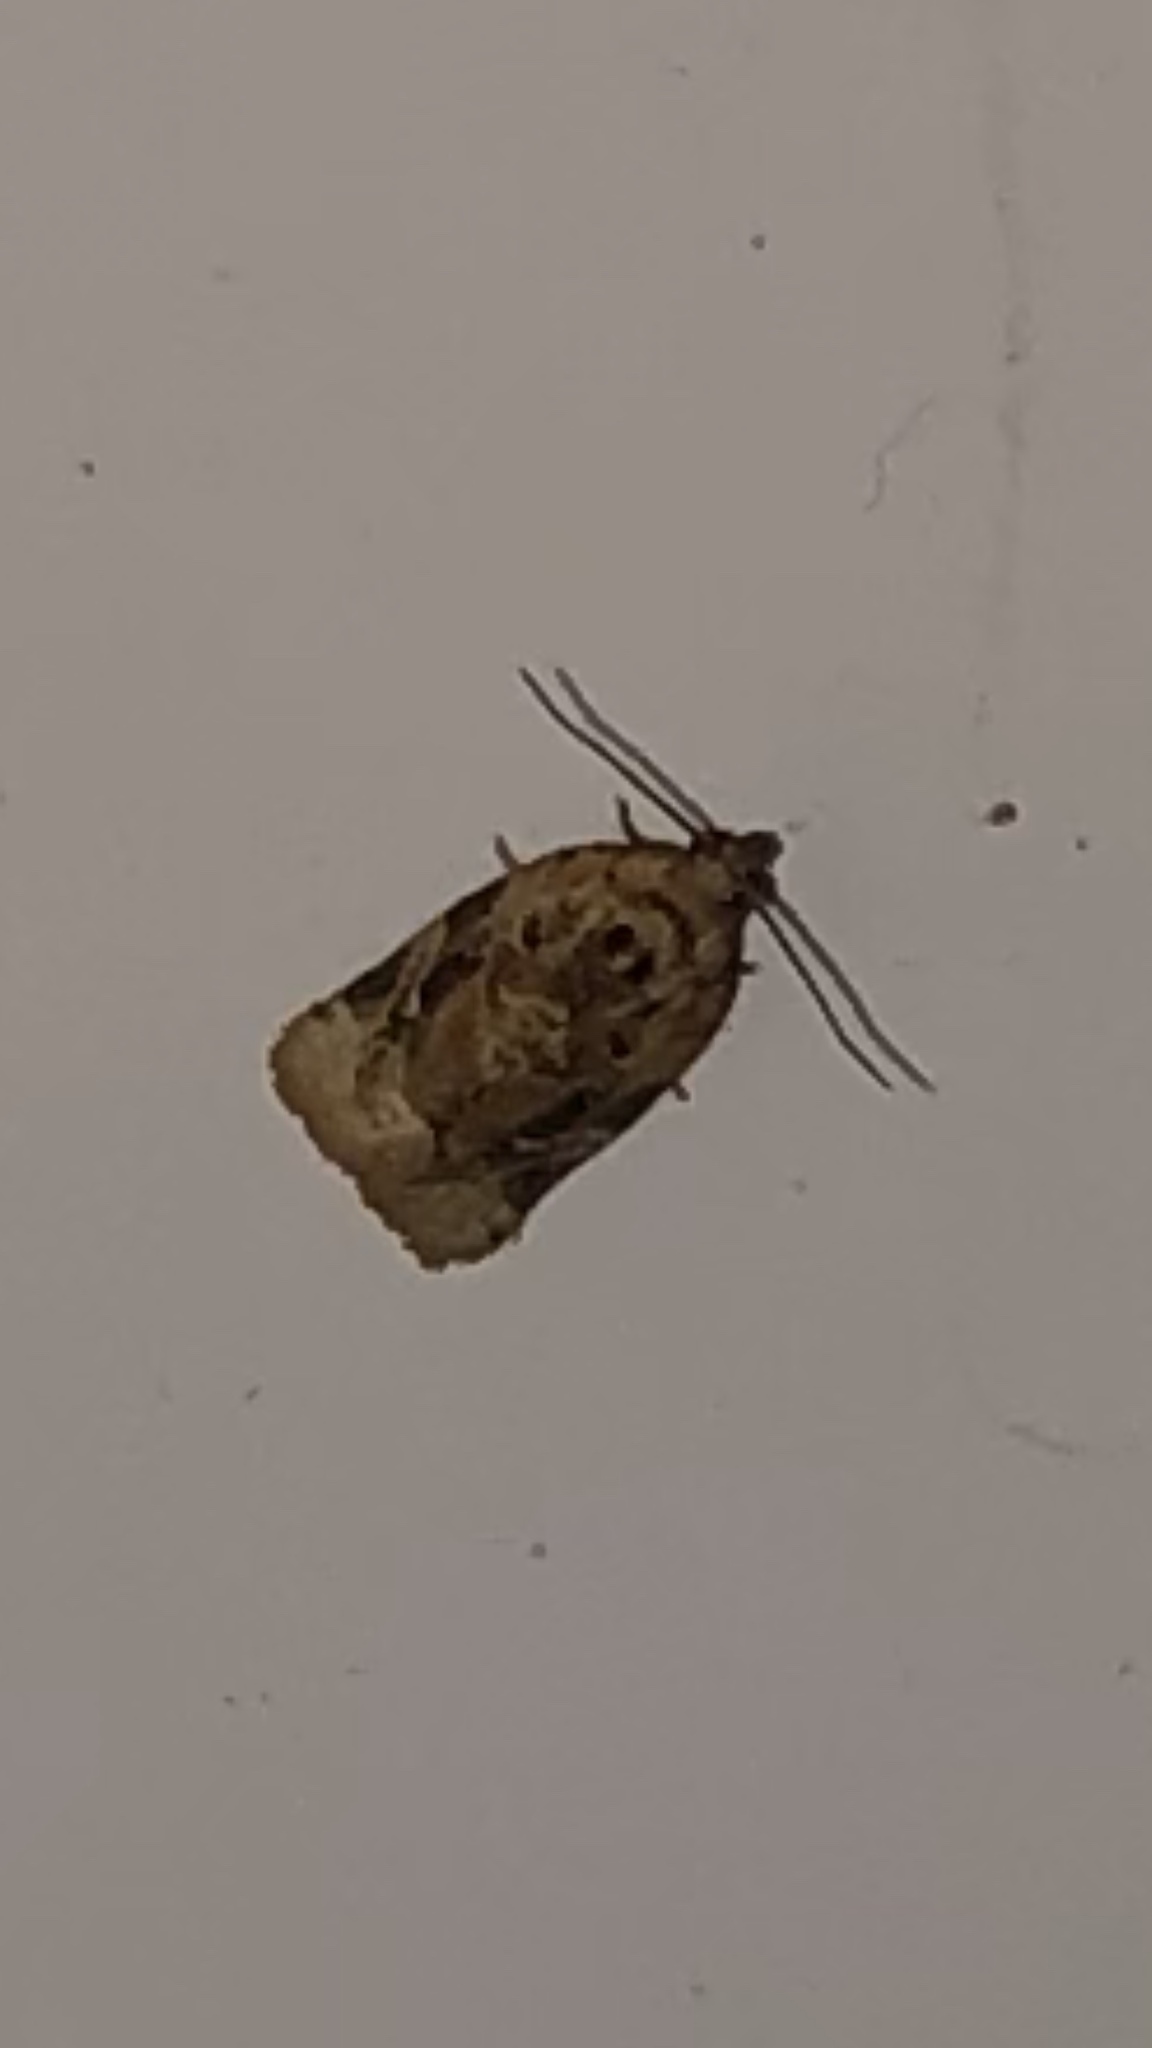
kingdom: Animalia
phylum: Arthropoda
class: Insecta
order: Lepidoptera
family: Tortricidae
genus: Argyrotaenia
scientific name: Argyrotaenia velutinana
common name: Red-banded leafroller moth
